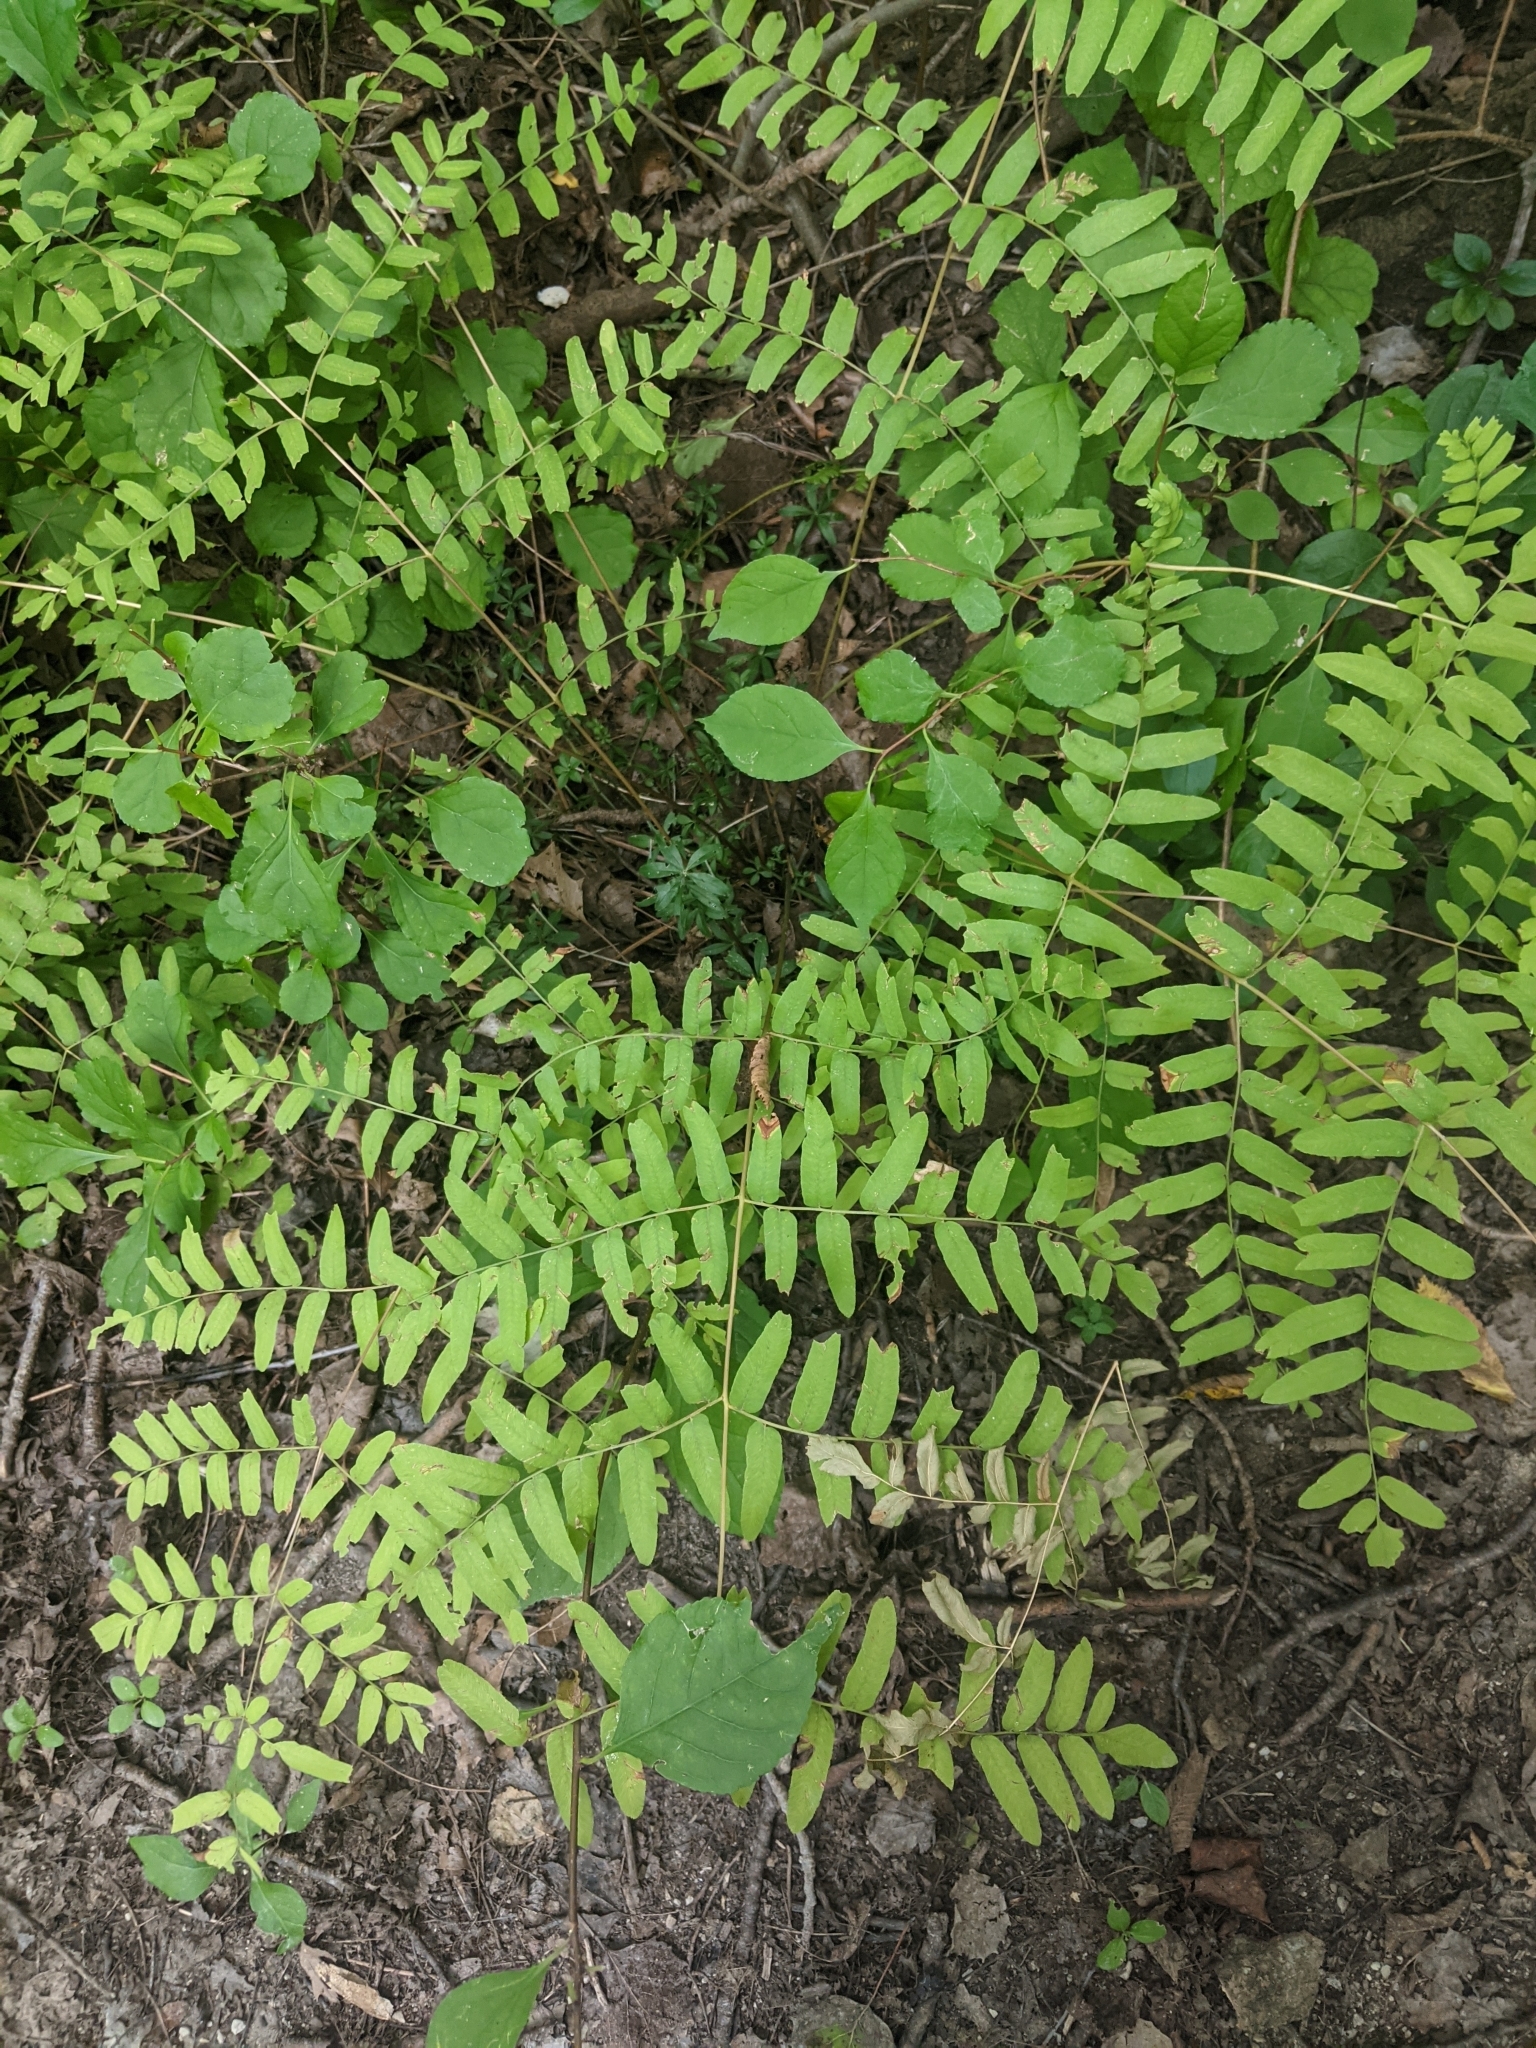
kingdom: Plantae
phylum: Tracheophyta
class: Polypodiopsida
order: Osmundales
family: Osmundaceae
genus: Osmunda
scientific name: Osmunda spectabilis
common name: American royal fern
